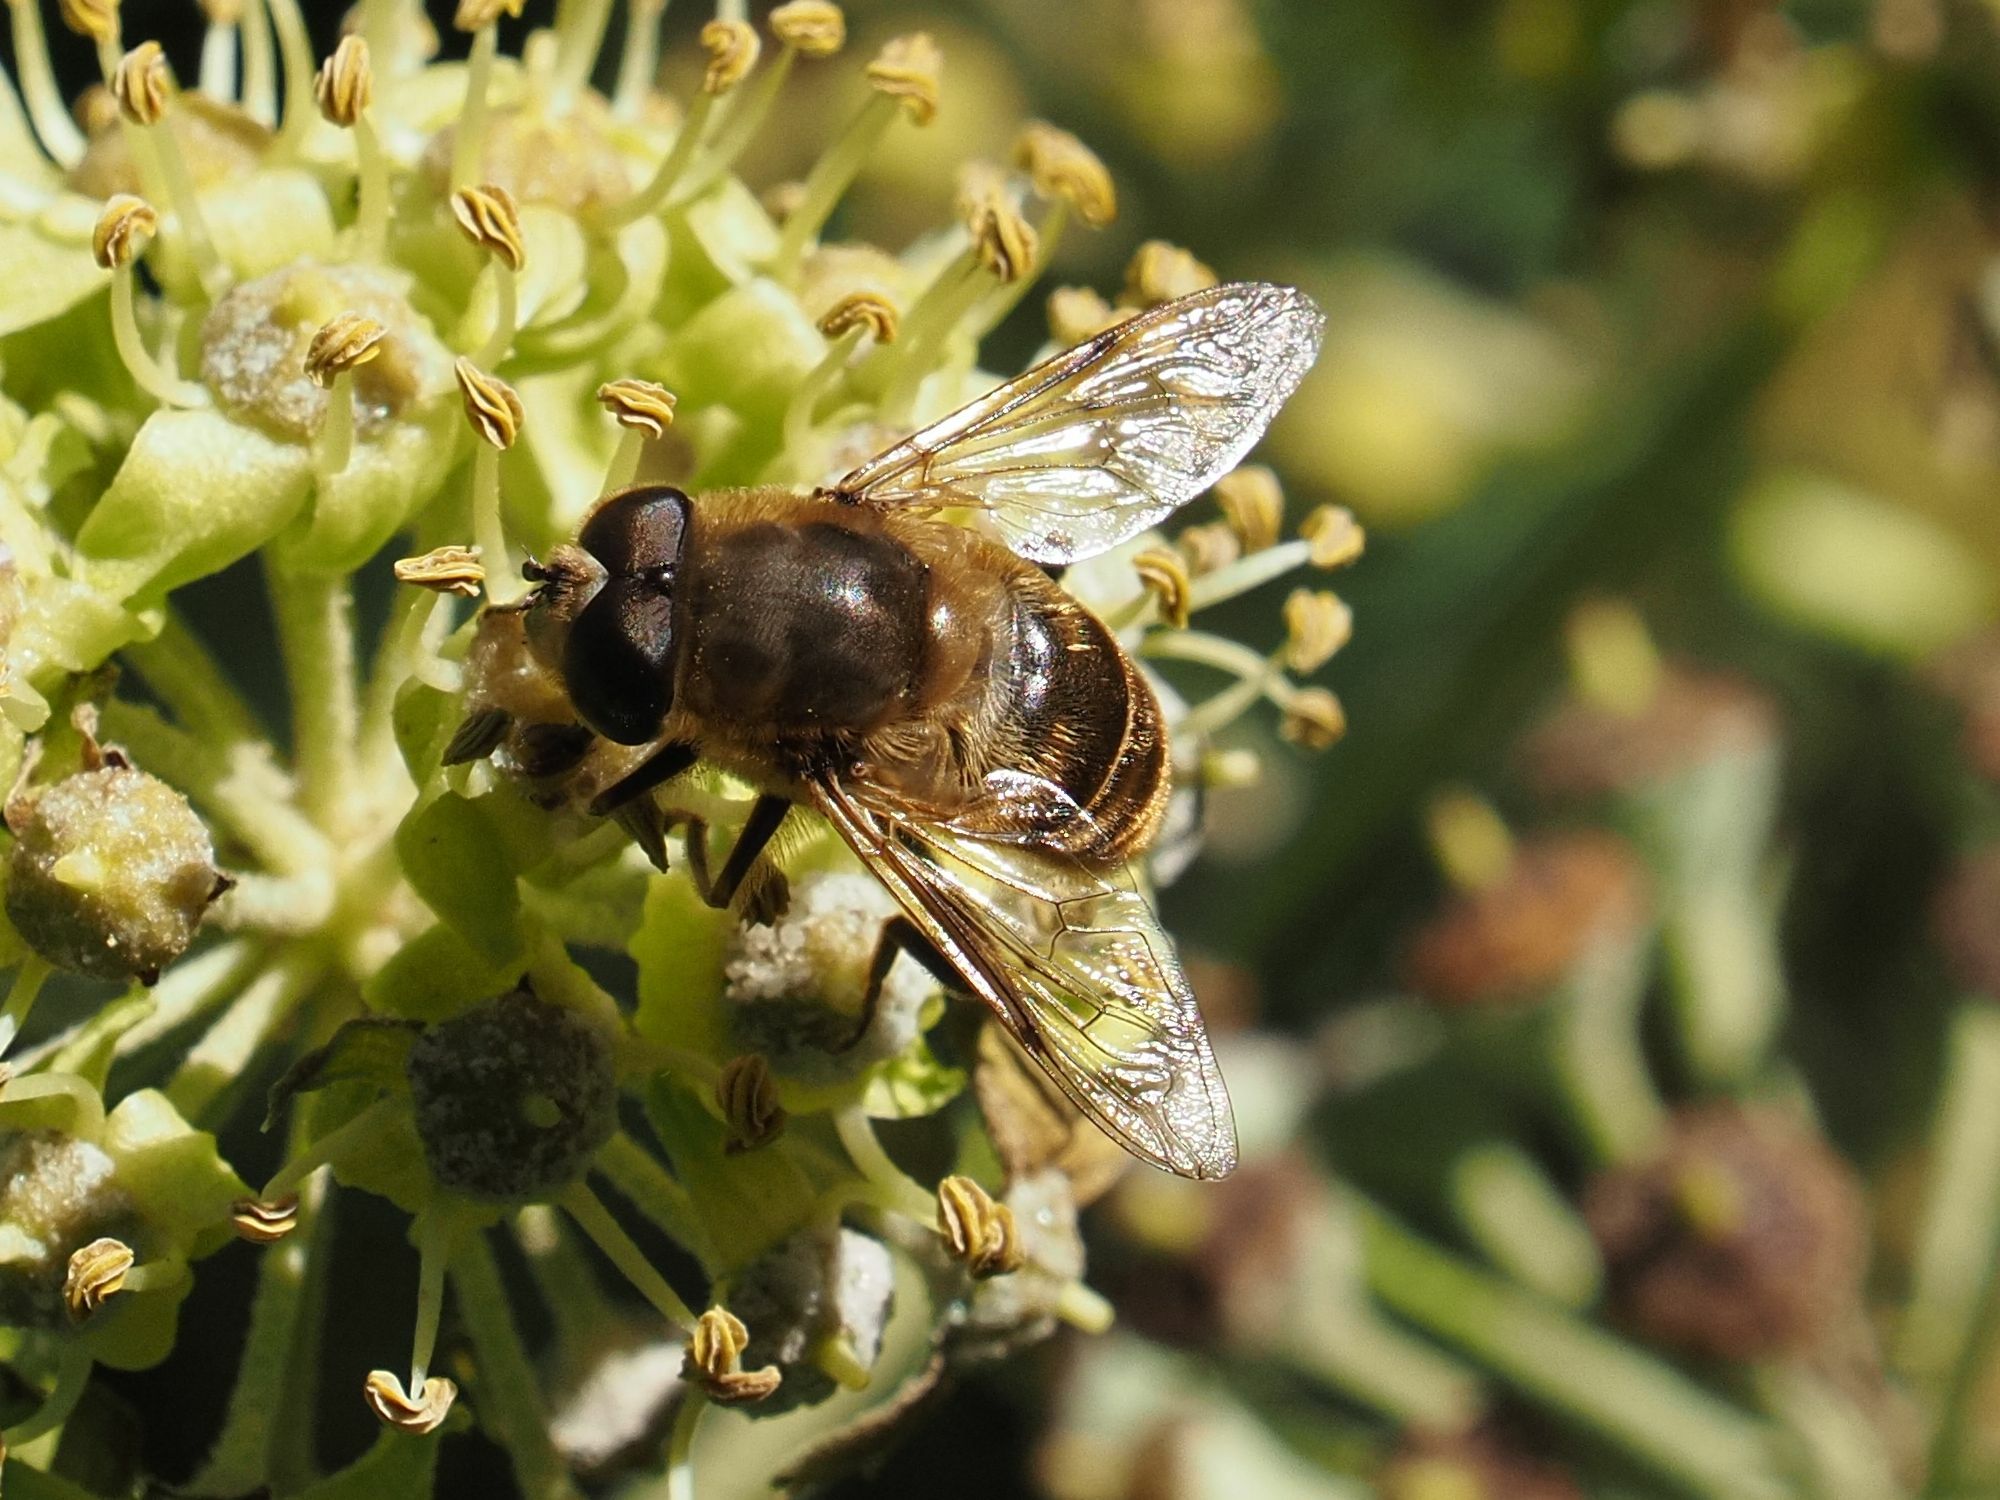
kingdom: Animalia
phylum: Arthropoda
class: Insecta
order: Diptera
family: Syrphidae
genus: Eristalis
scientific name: Eristalis tenax
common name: Drone fly
